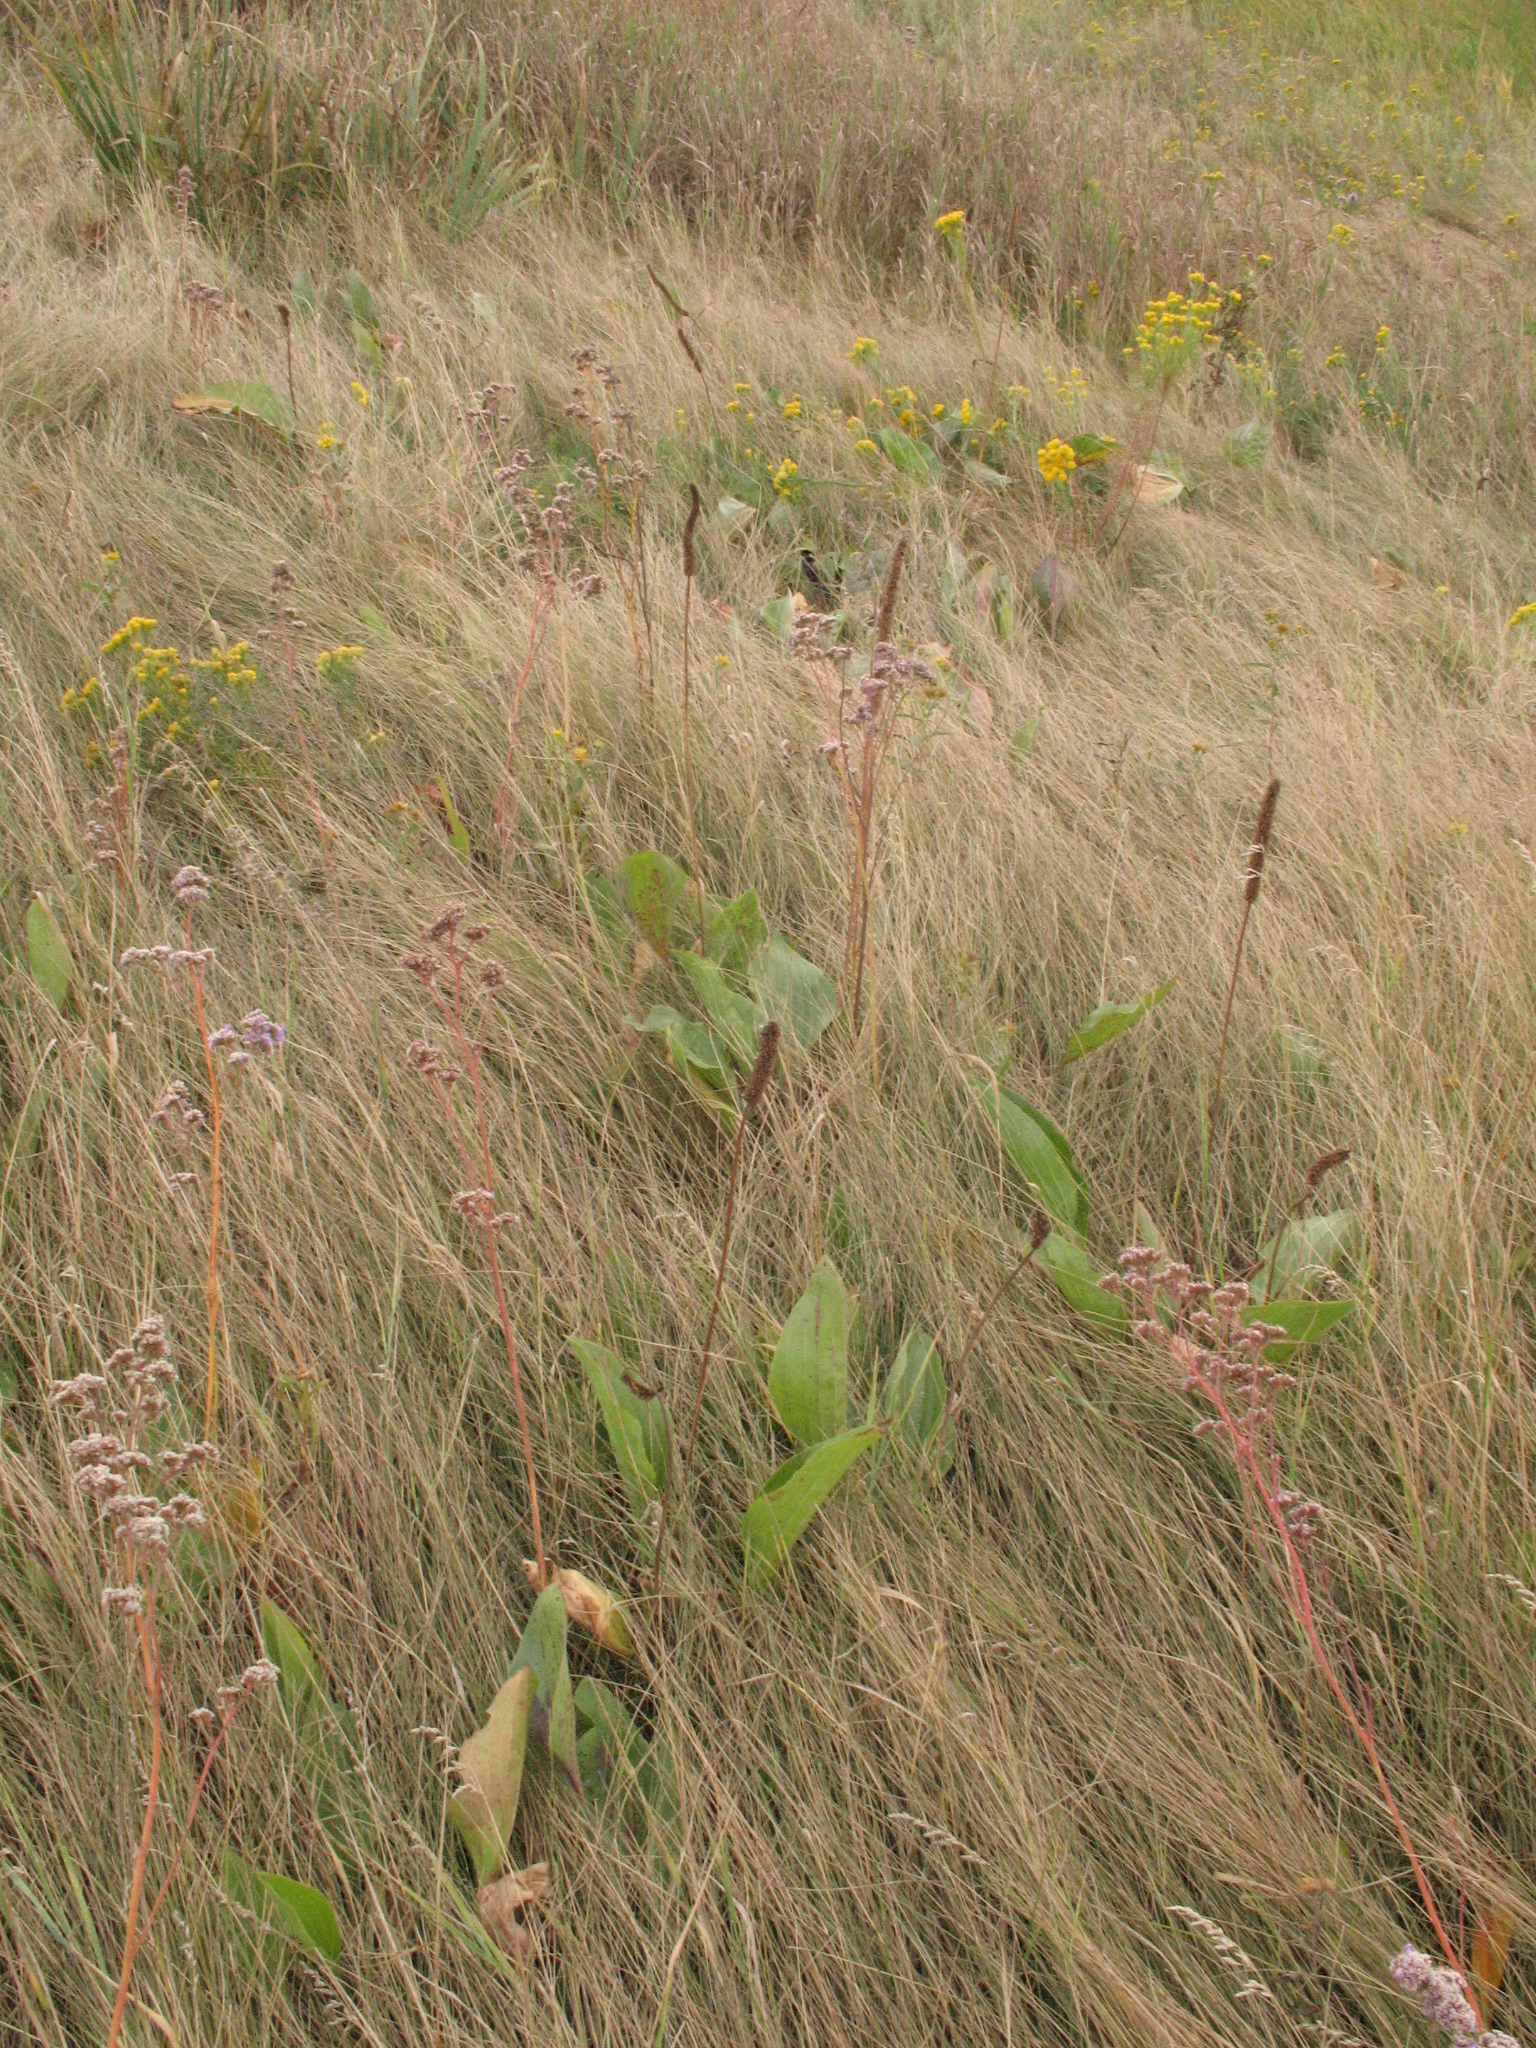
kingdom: Plantae
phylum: Tracheophyta
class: Magnoliopsida
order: Lamiales
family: Plantaginaceae
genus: Plantago
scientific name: Plantago maxima
